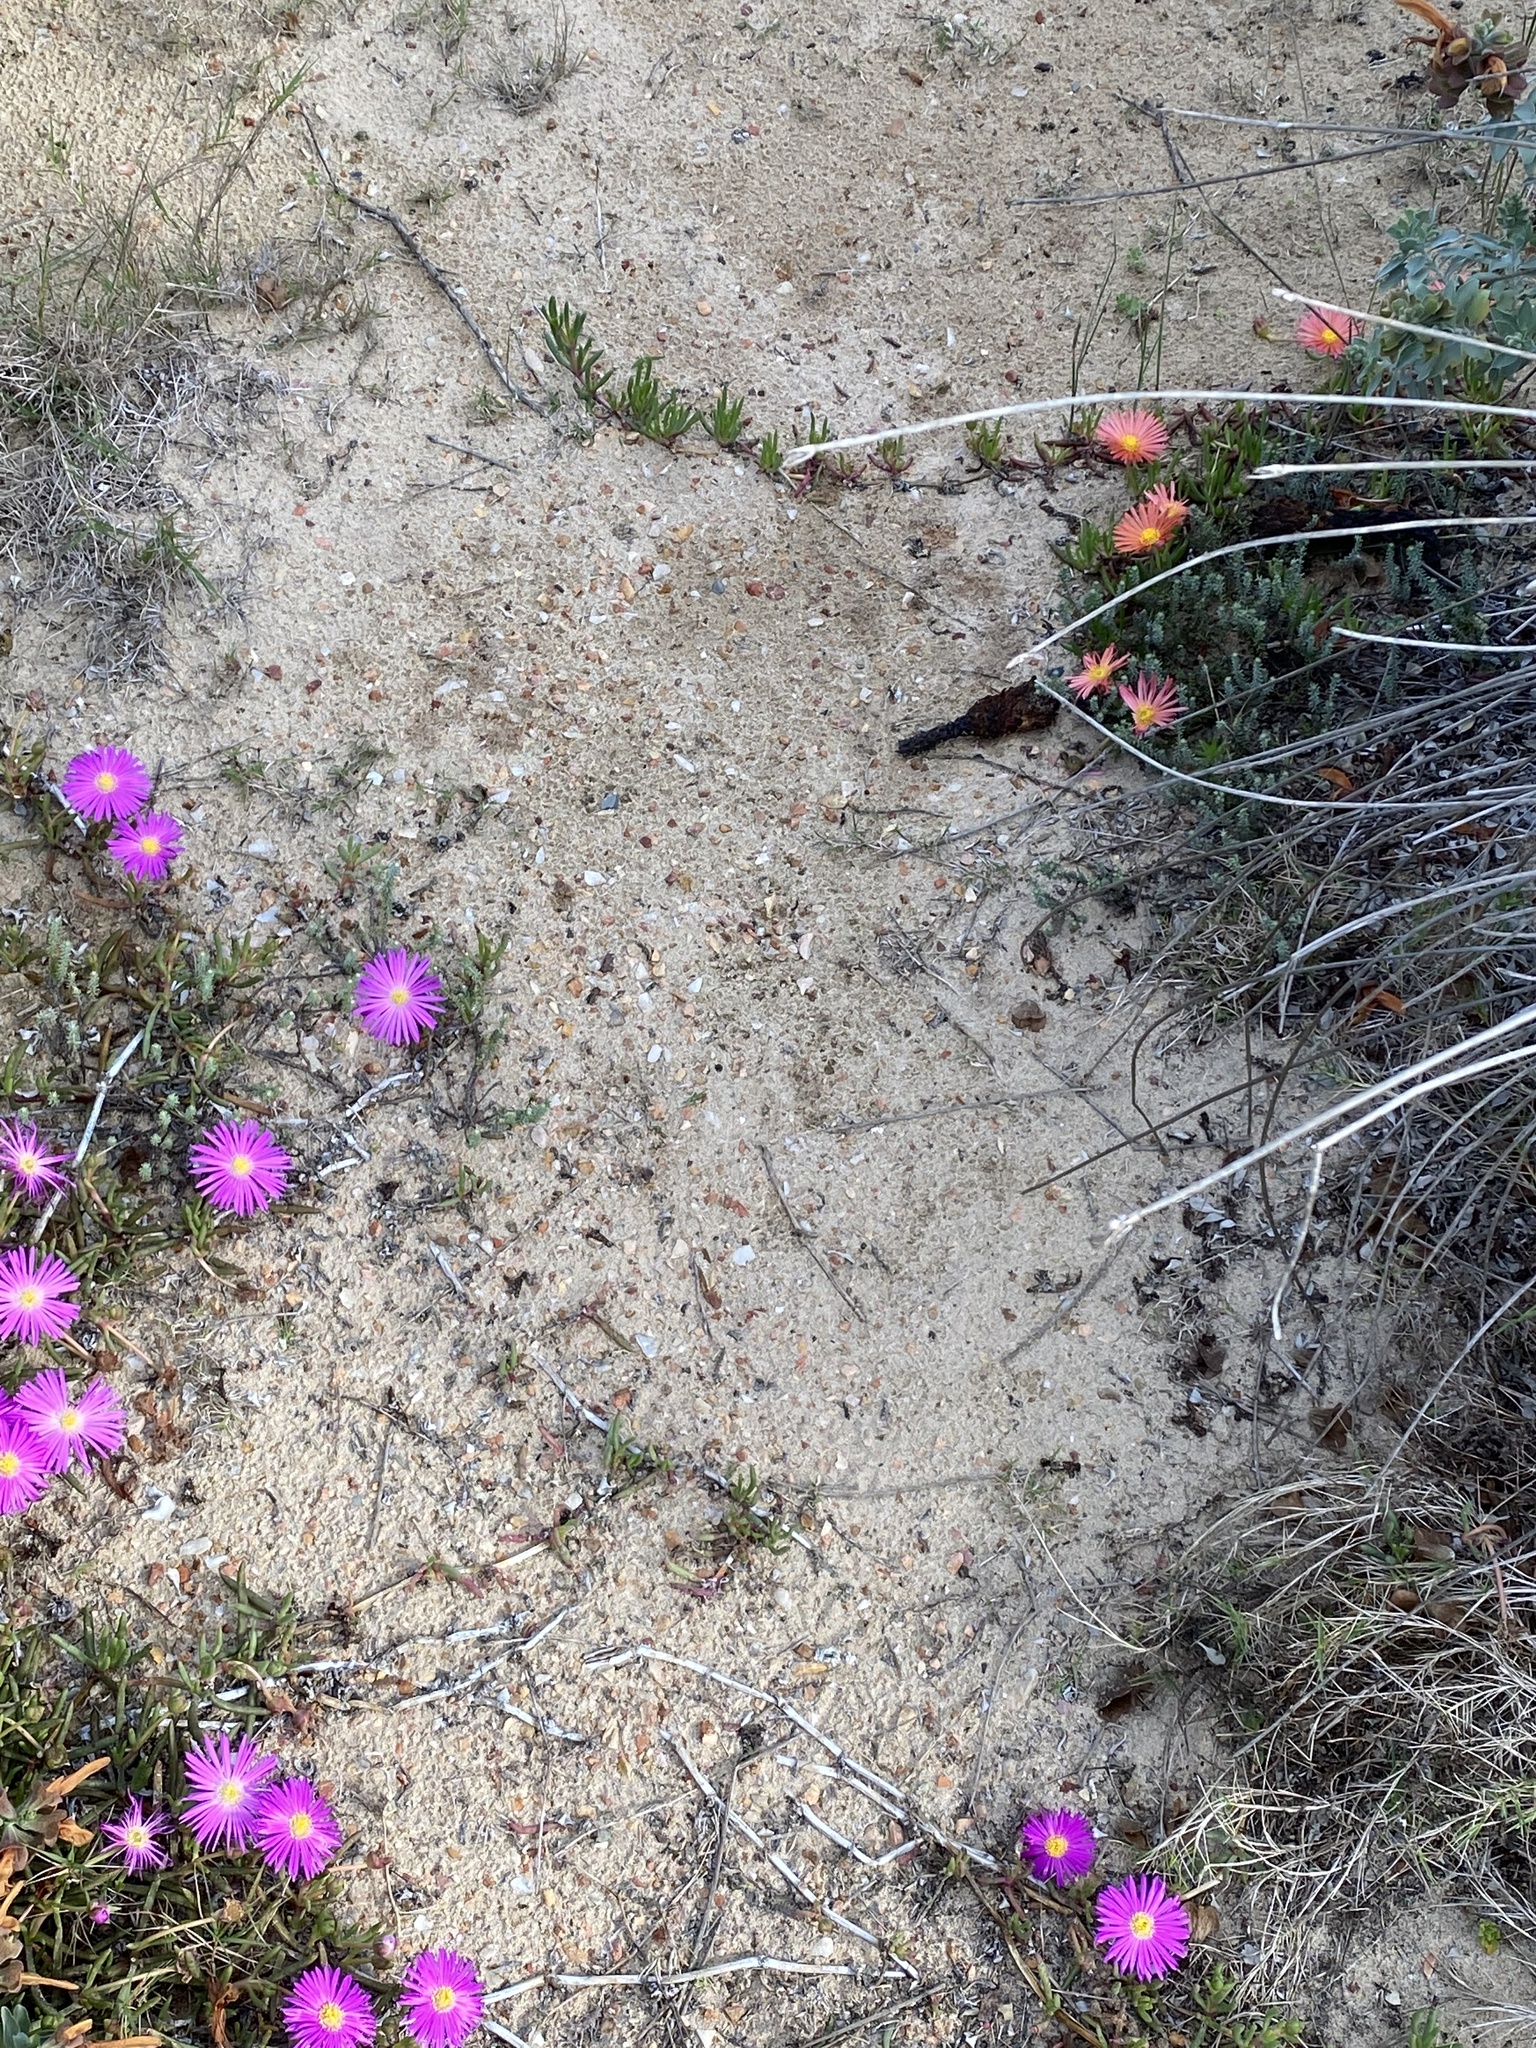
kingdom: Plantae
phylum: Tracheophyta
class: Magnoliopsida
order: Caryophyllales
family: Aizoaceae
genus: Jordaaniella
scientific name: Jordaaniella dubia
